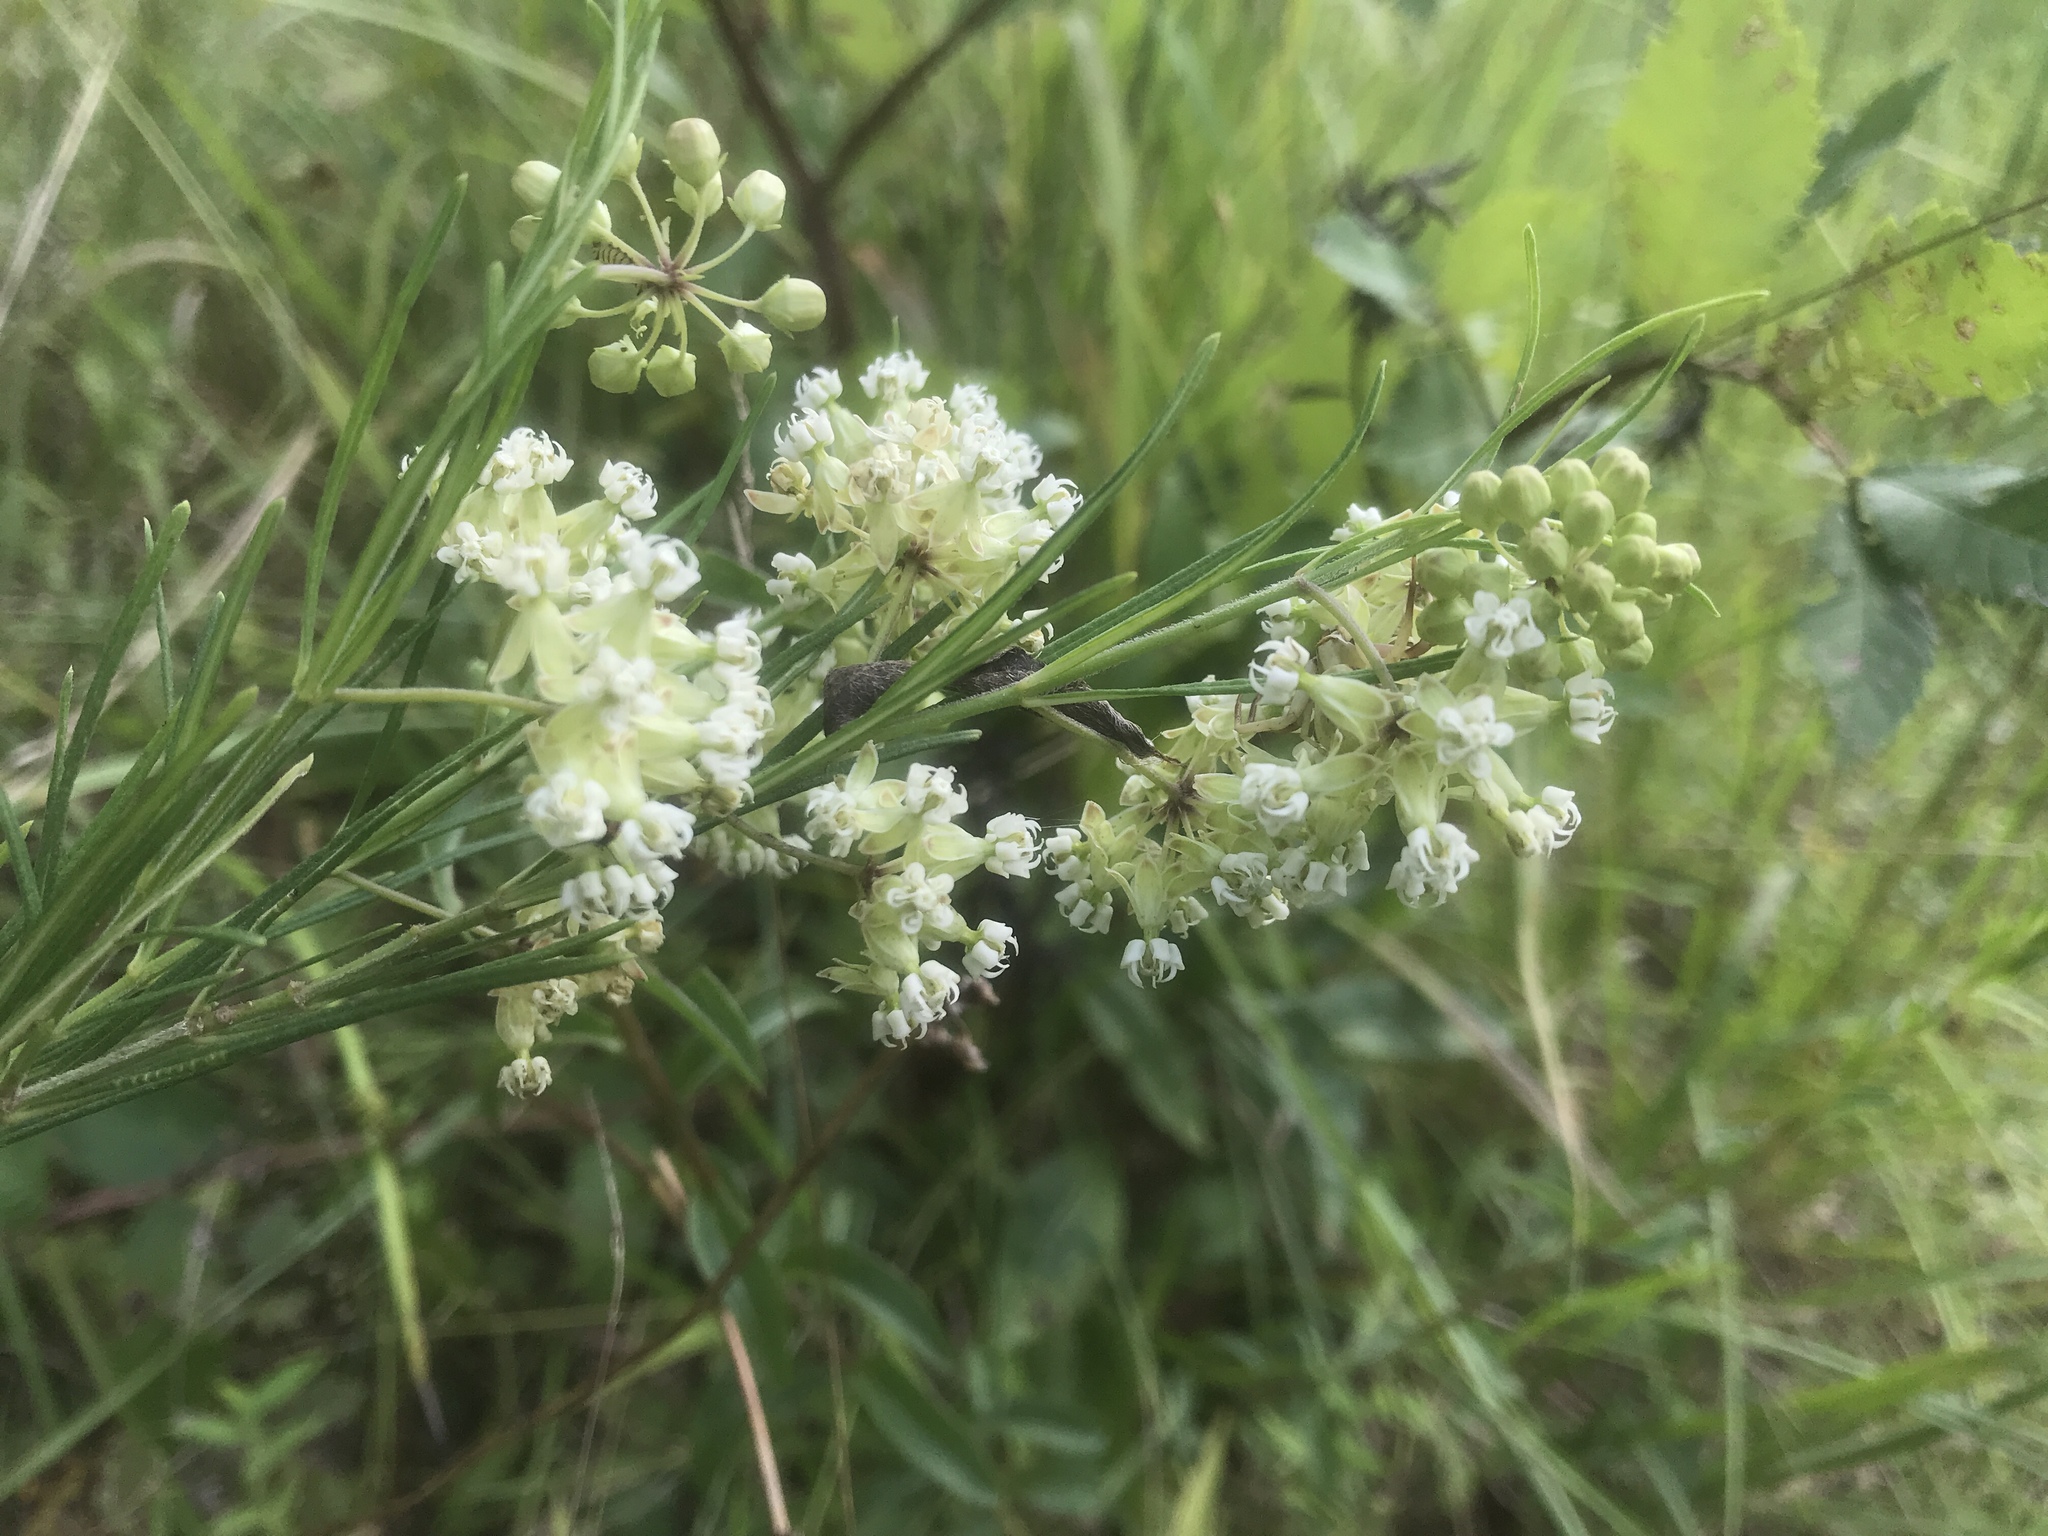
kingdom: Plantae
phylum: Tracheophyta
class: Magnoliopsida
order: Gentianales
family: Apocynaceae
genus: Asclepias
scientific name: Asclepias verticillata
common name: Eastern whorled milkweed
